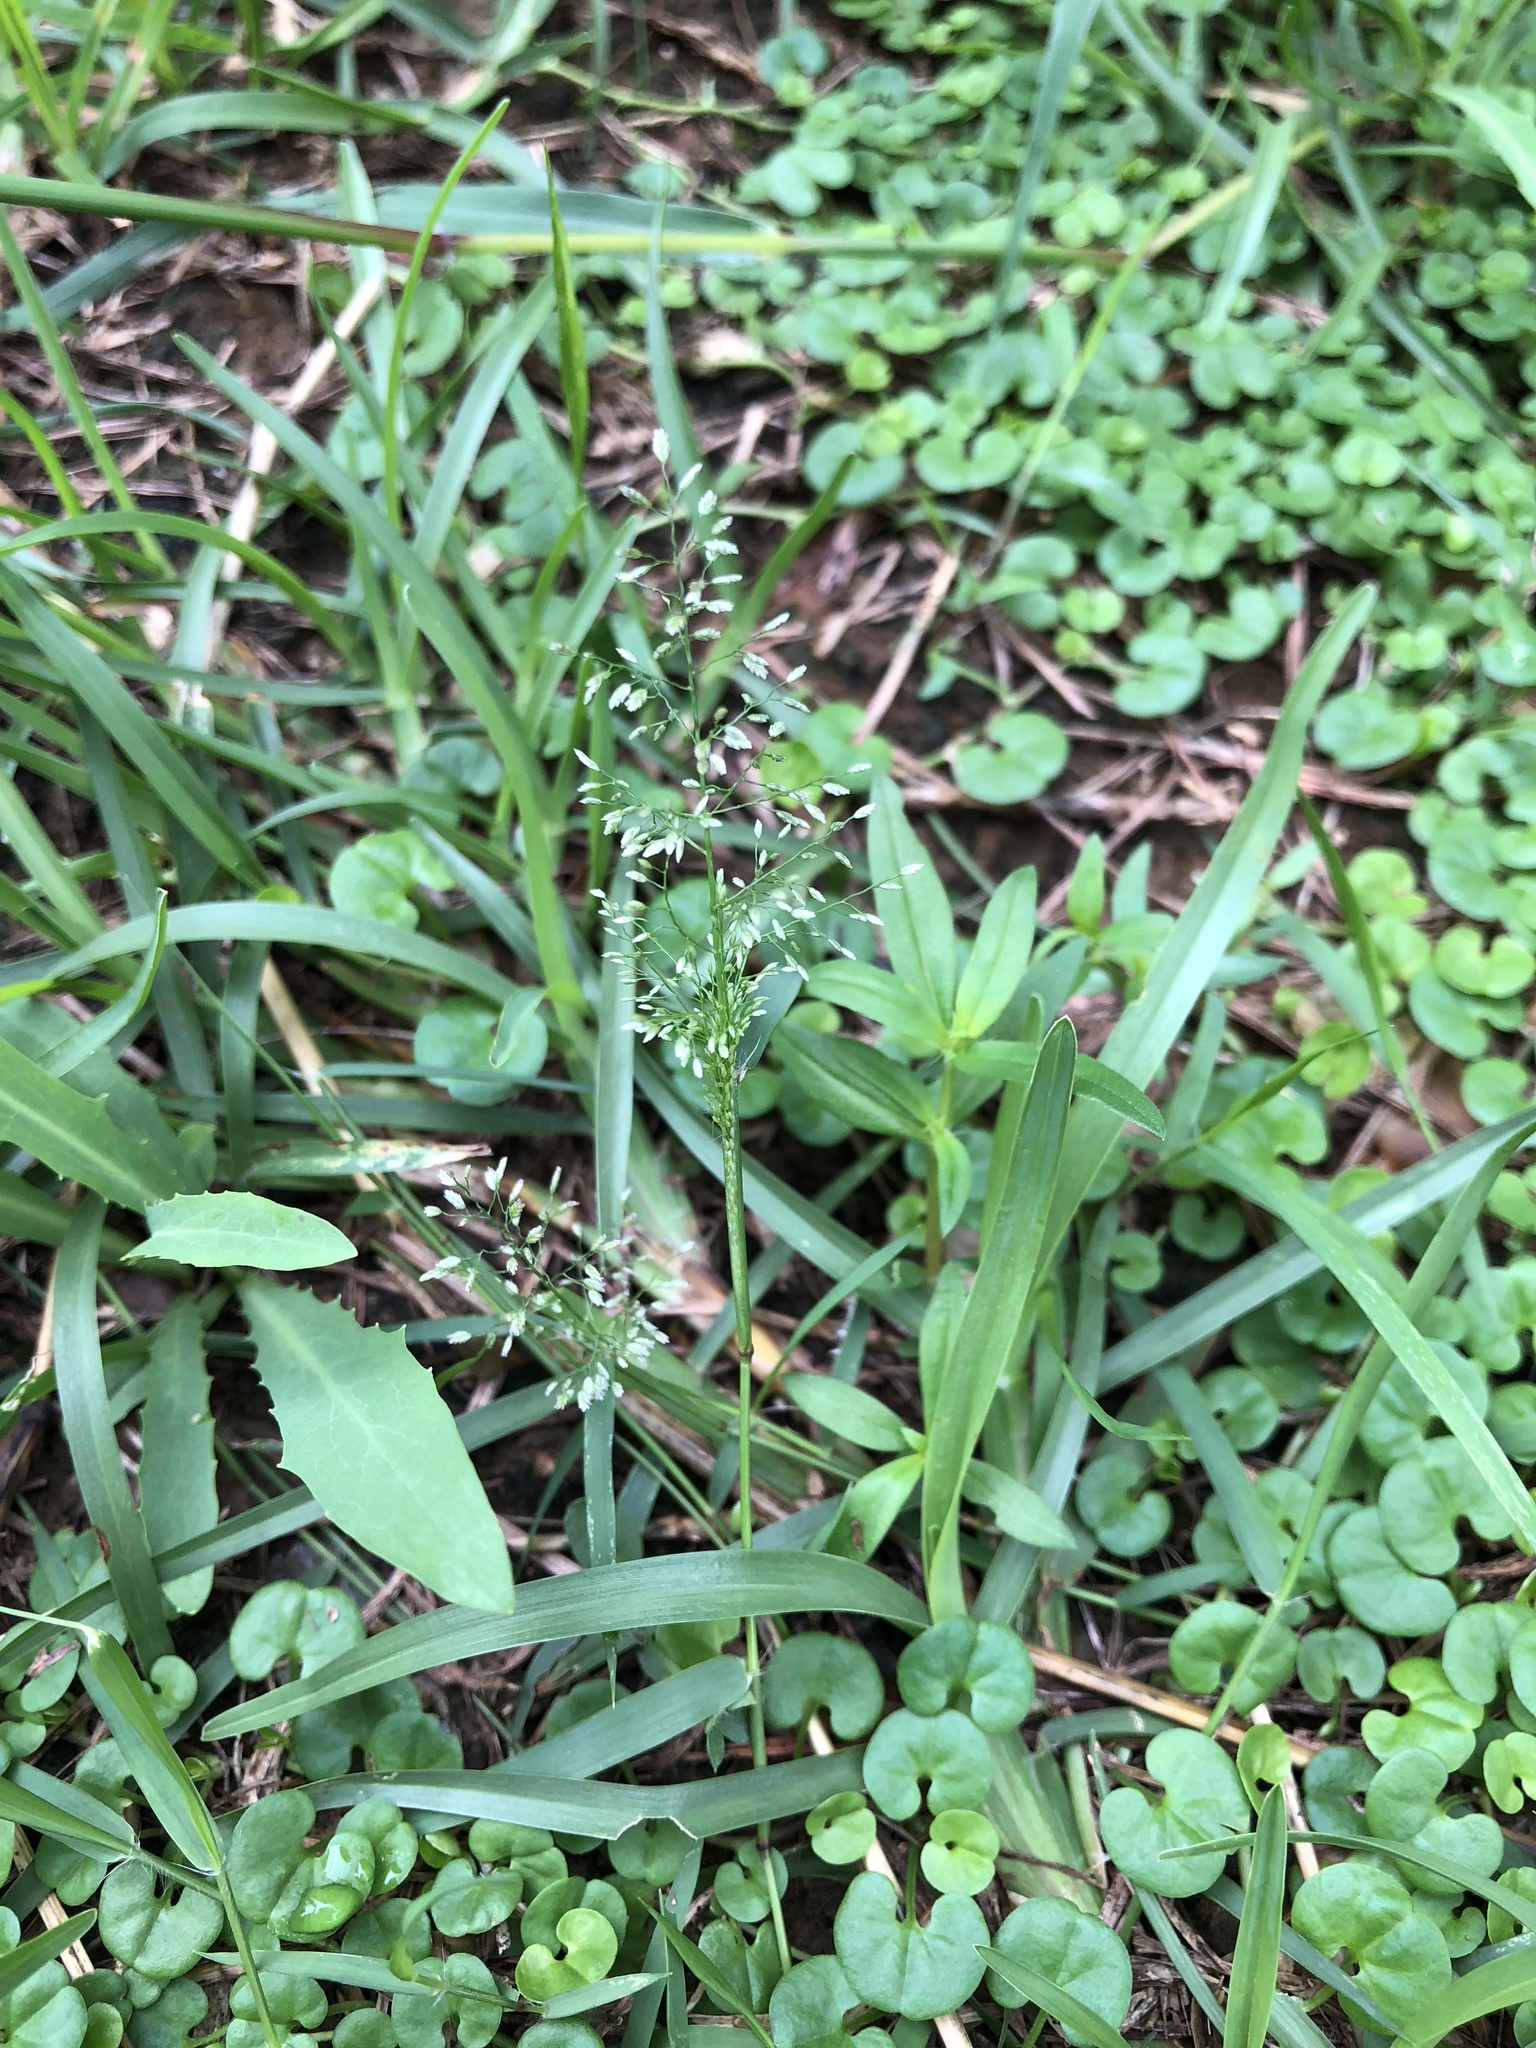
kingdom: Plantae
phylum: Tracheophyta
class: Liliopsida
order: Poales
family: Poaceae
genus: Eragrostis
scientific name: Eragrostis tenella
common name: Japanese lovegrass
